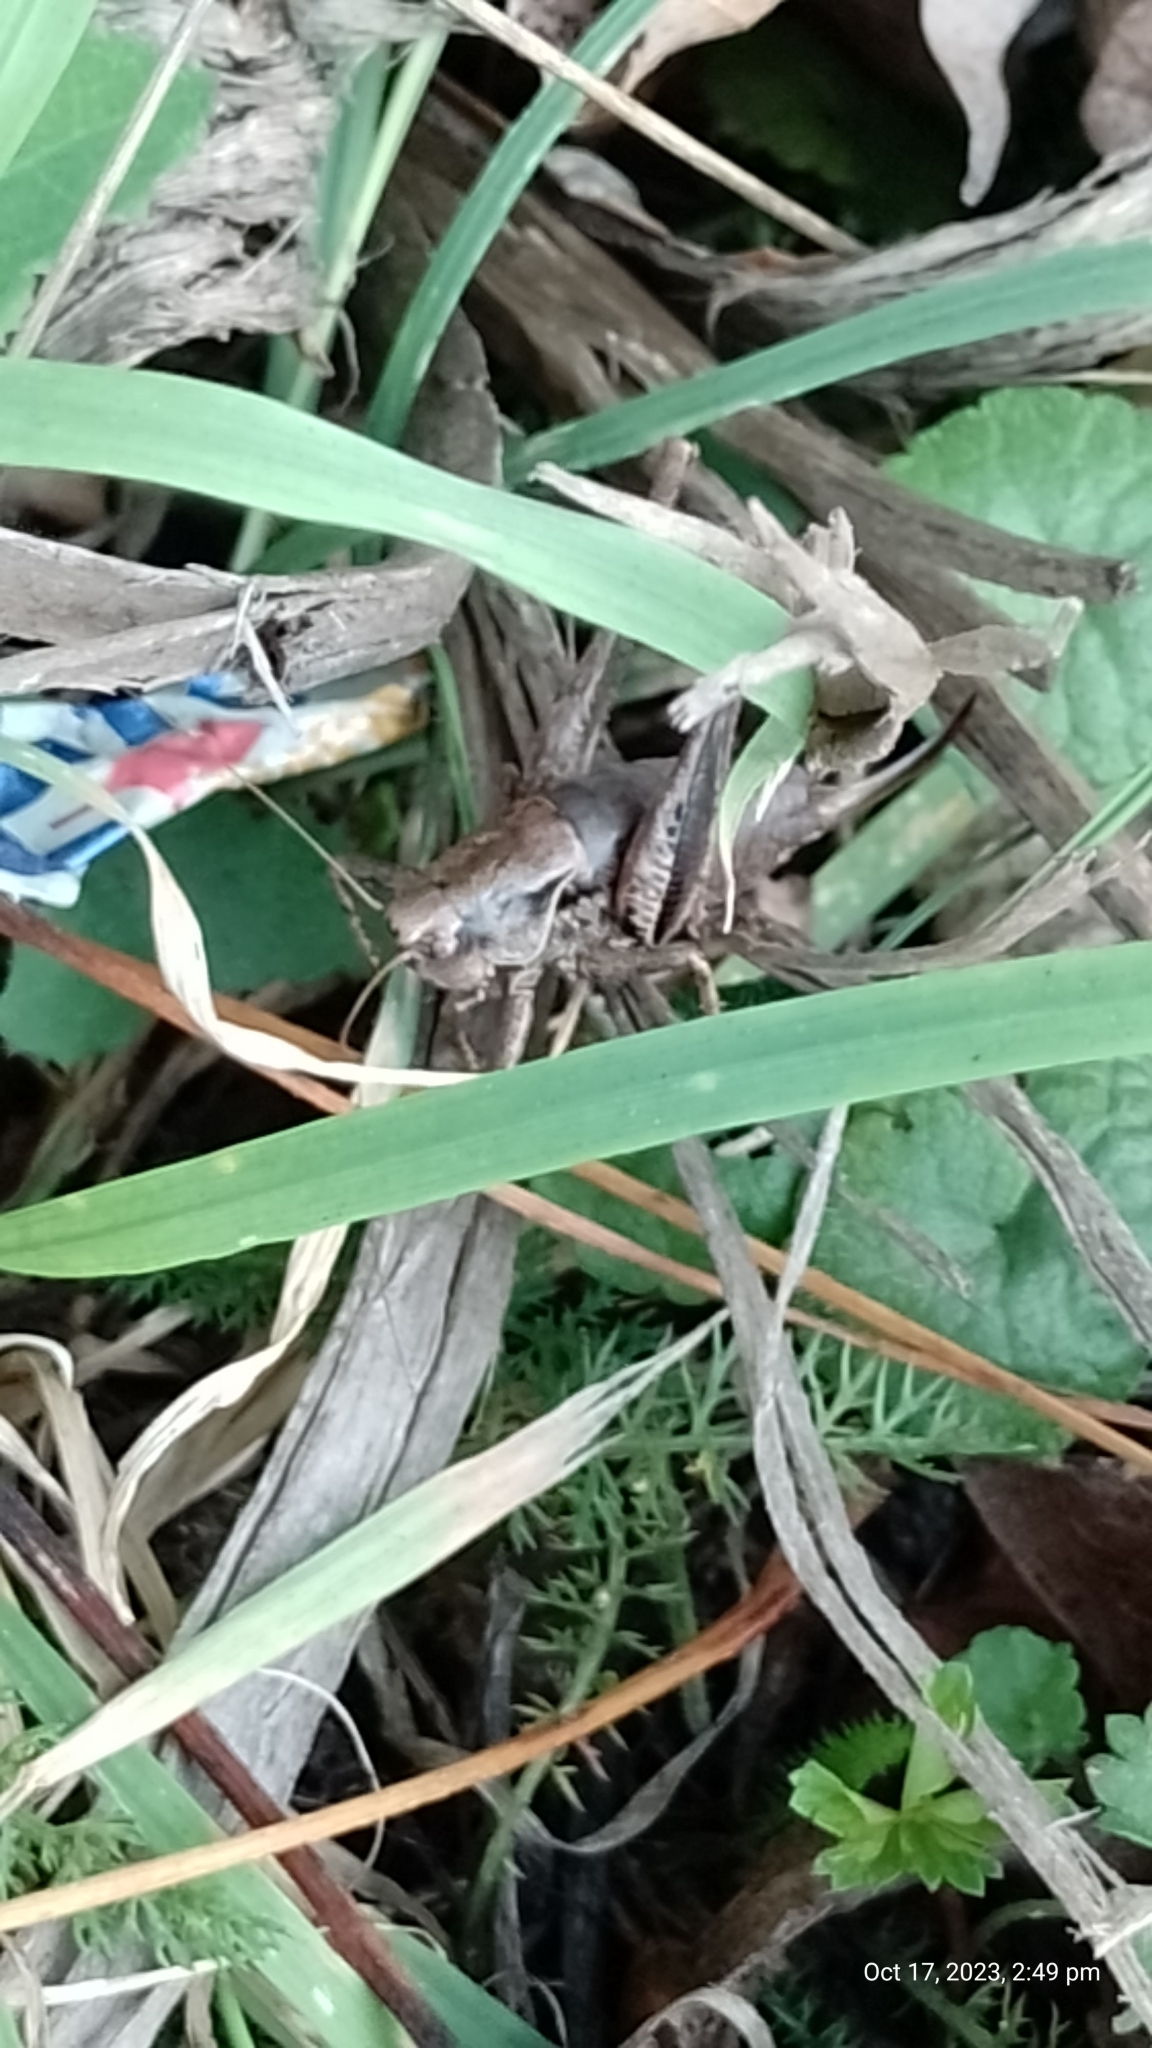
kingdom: Animalia
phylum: Arthropoda
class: Insecta
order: Orthoptera
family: Tettigoniidae
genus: Pholidoptera
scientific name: Pholidoptera griseoaptera
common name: Dark bush-cricket
